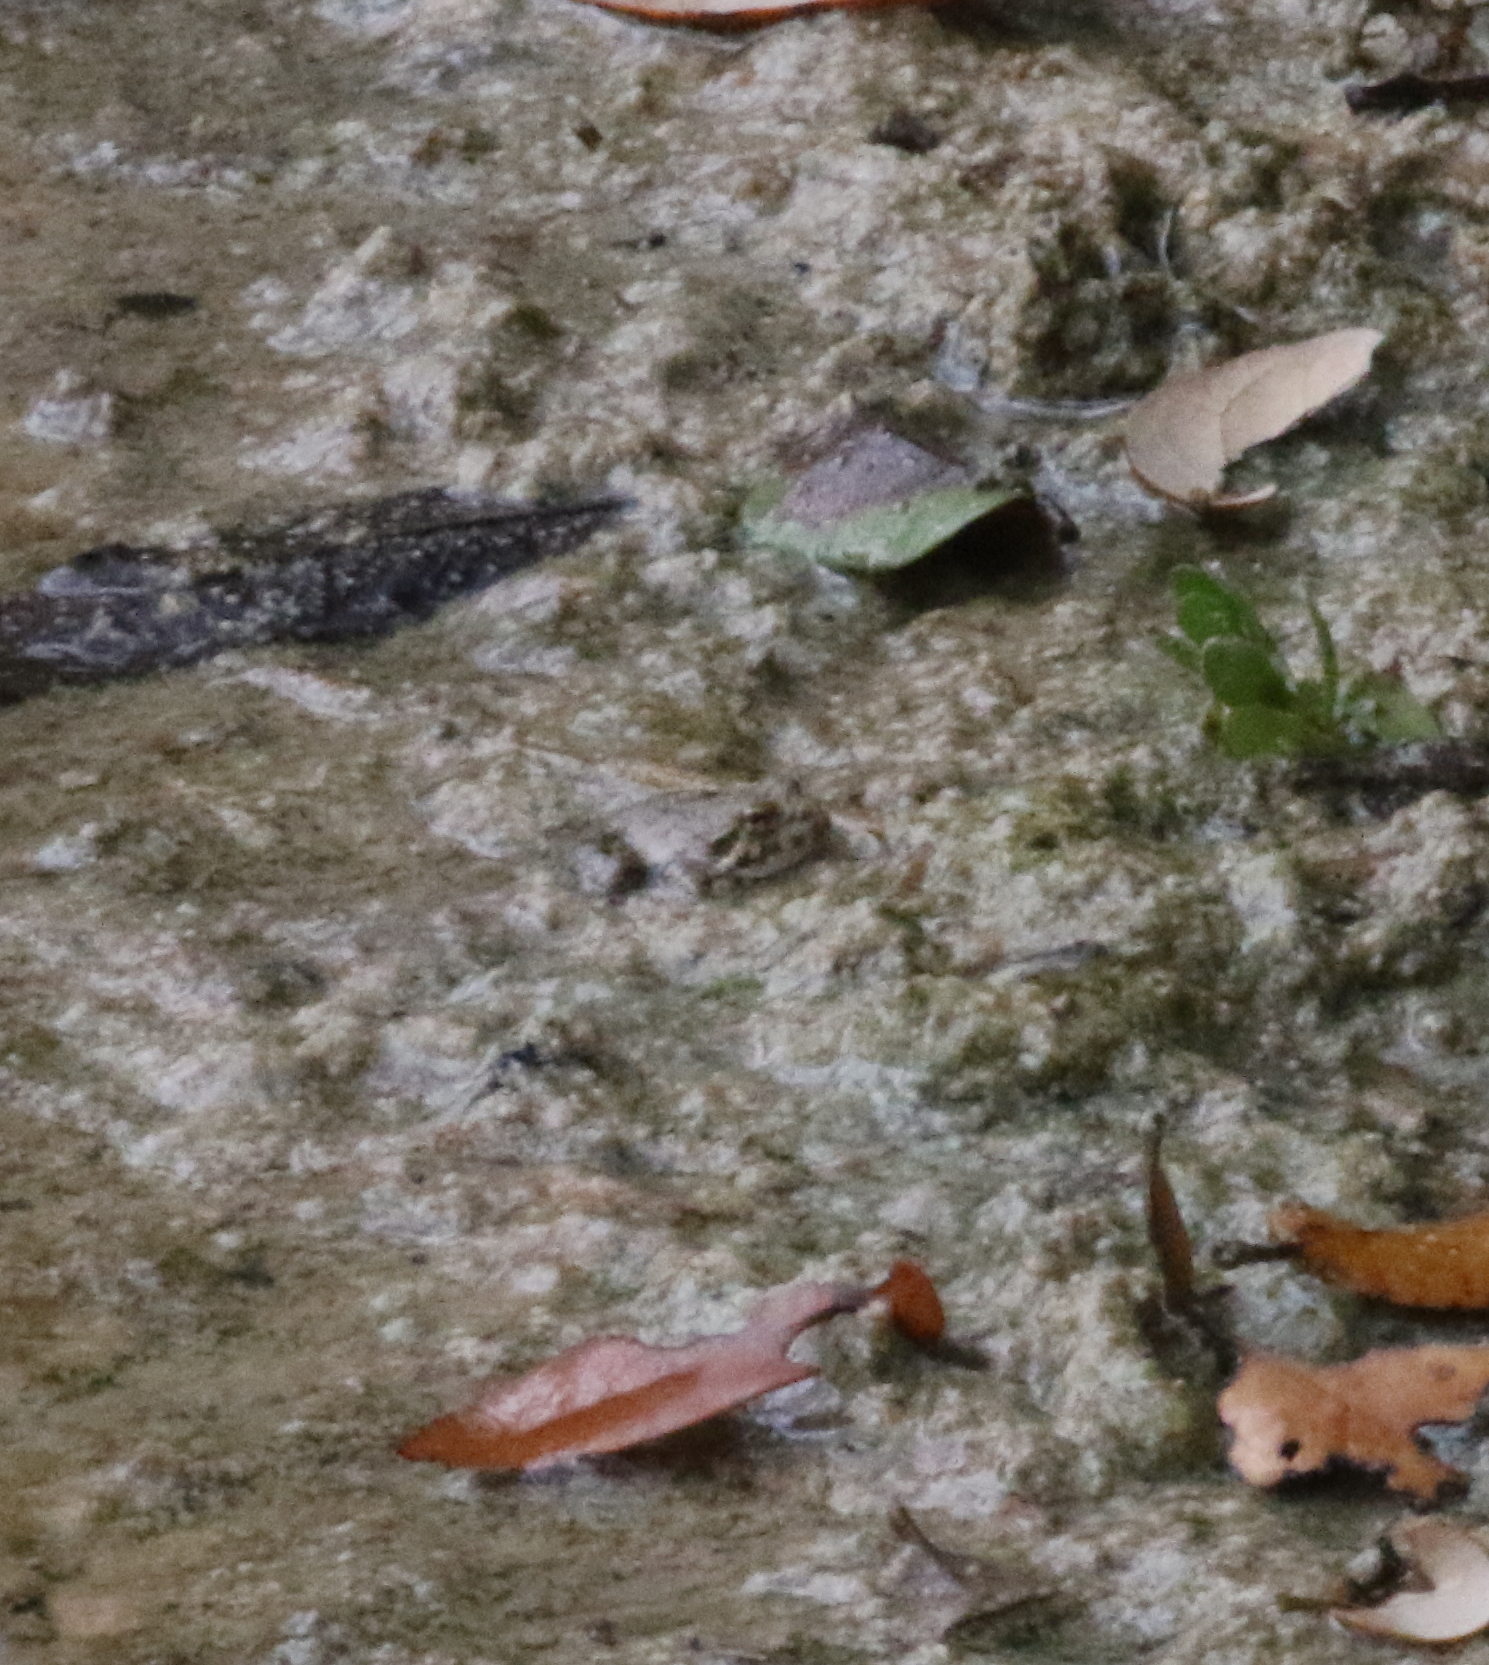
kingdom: Animalia
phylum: Chordata
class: Amphibia
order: Anura
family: Hylidae
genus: Acris
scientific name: Acris blanchardi
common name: Blanchard's cricket frog
